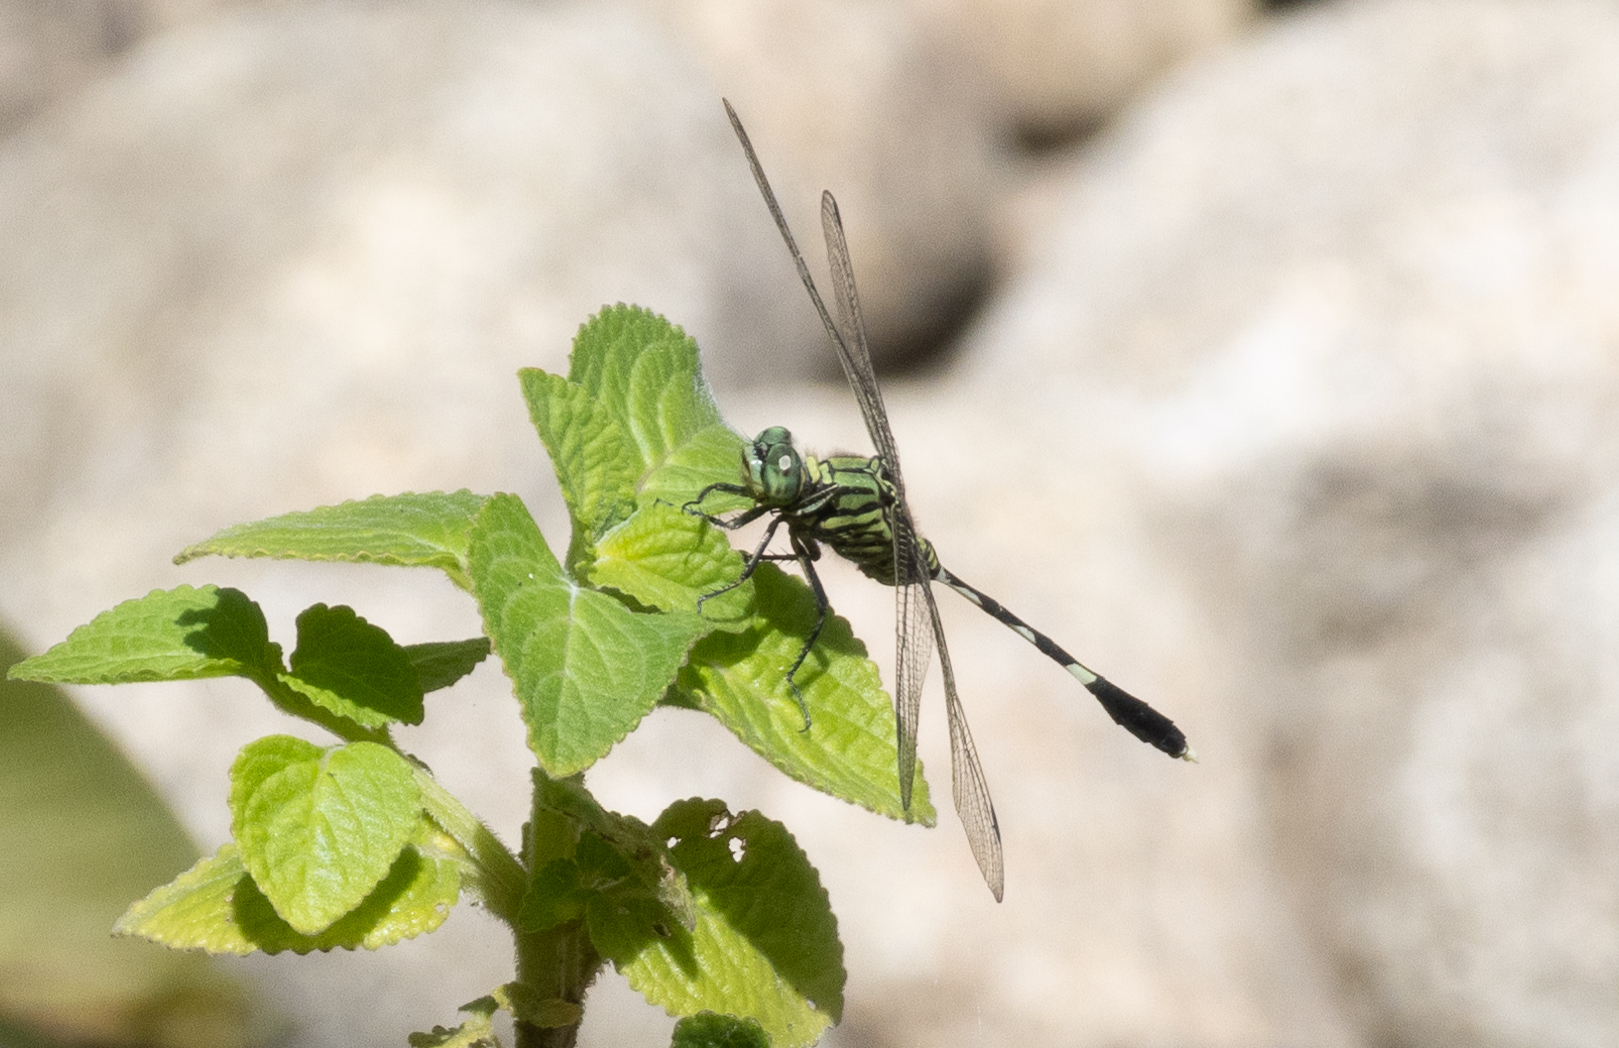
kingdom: Animalia
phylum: Arthropoda
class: Insecta
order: Odonata
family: Libellulidae
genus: Orthetrum
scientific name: Orthetrum sabina
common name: Slender skimmer
